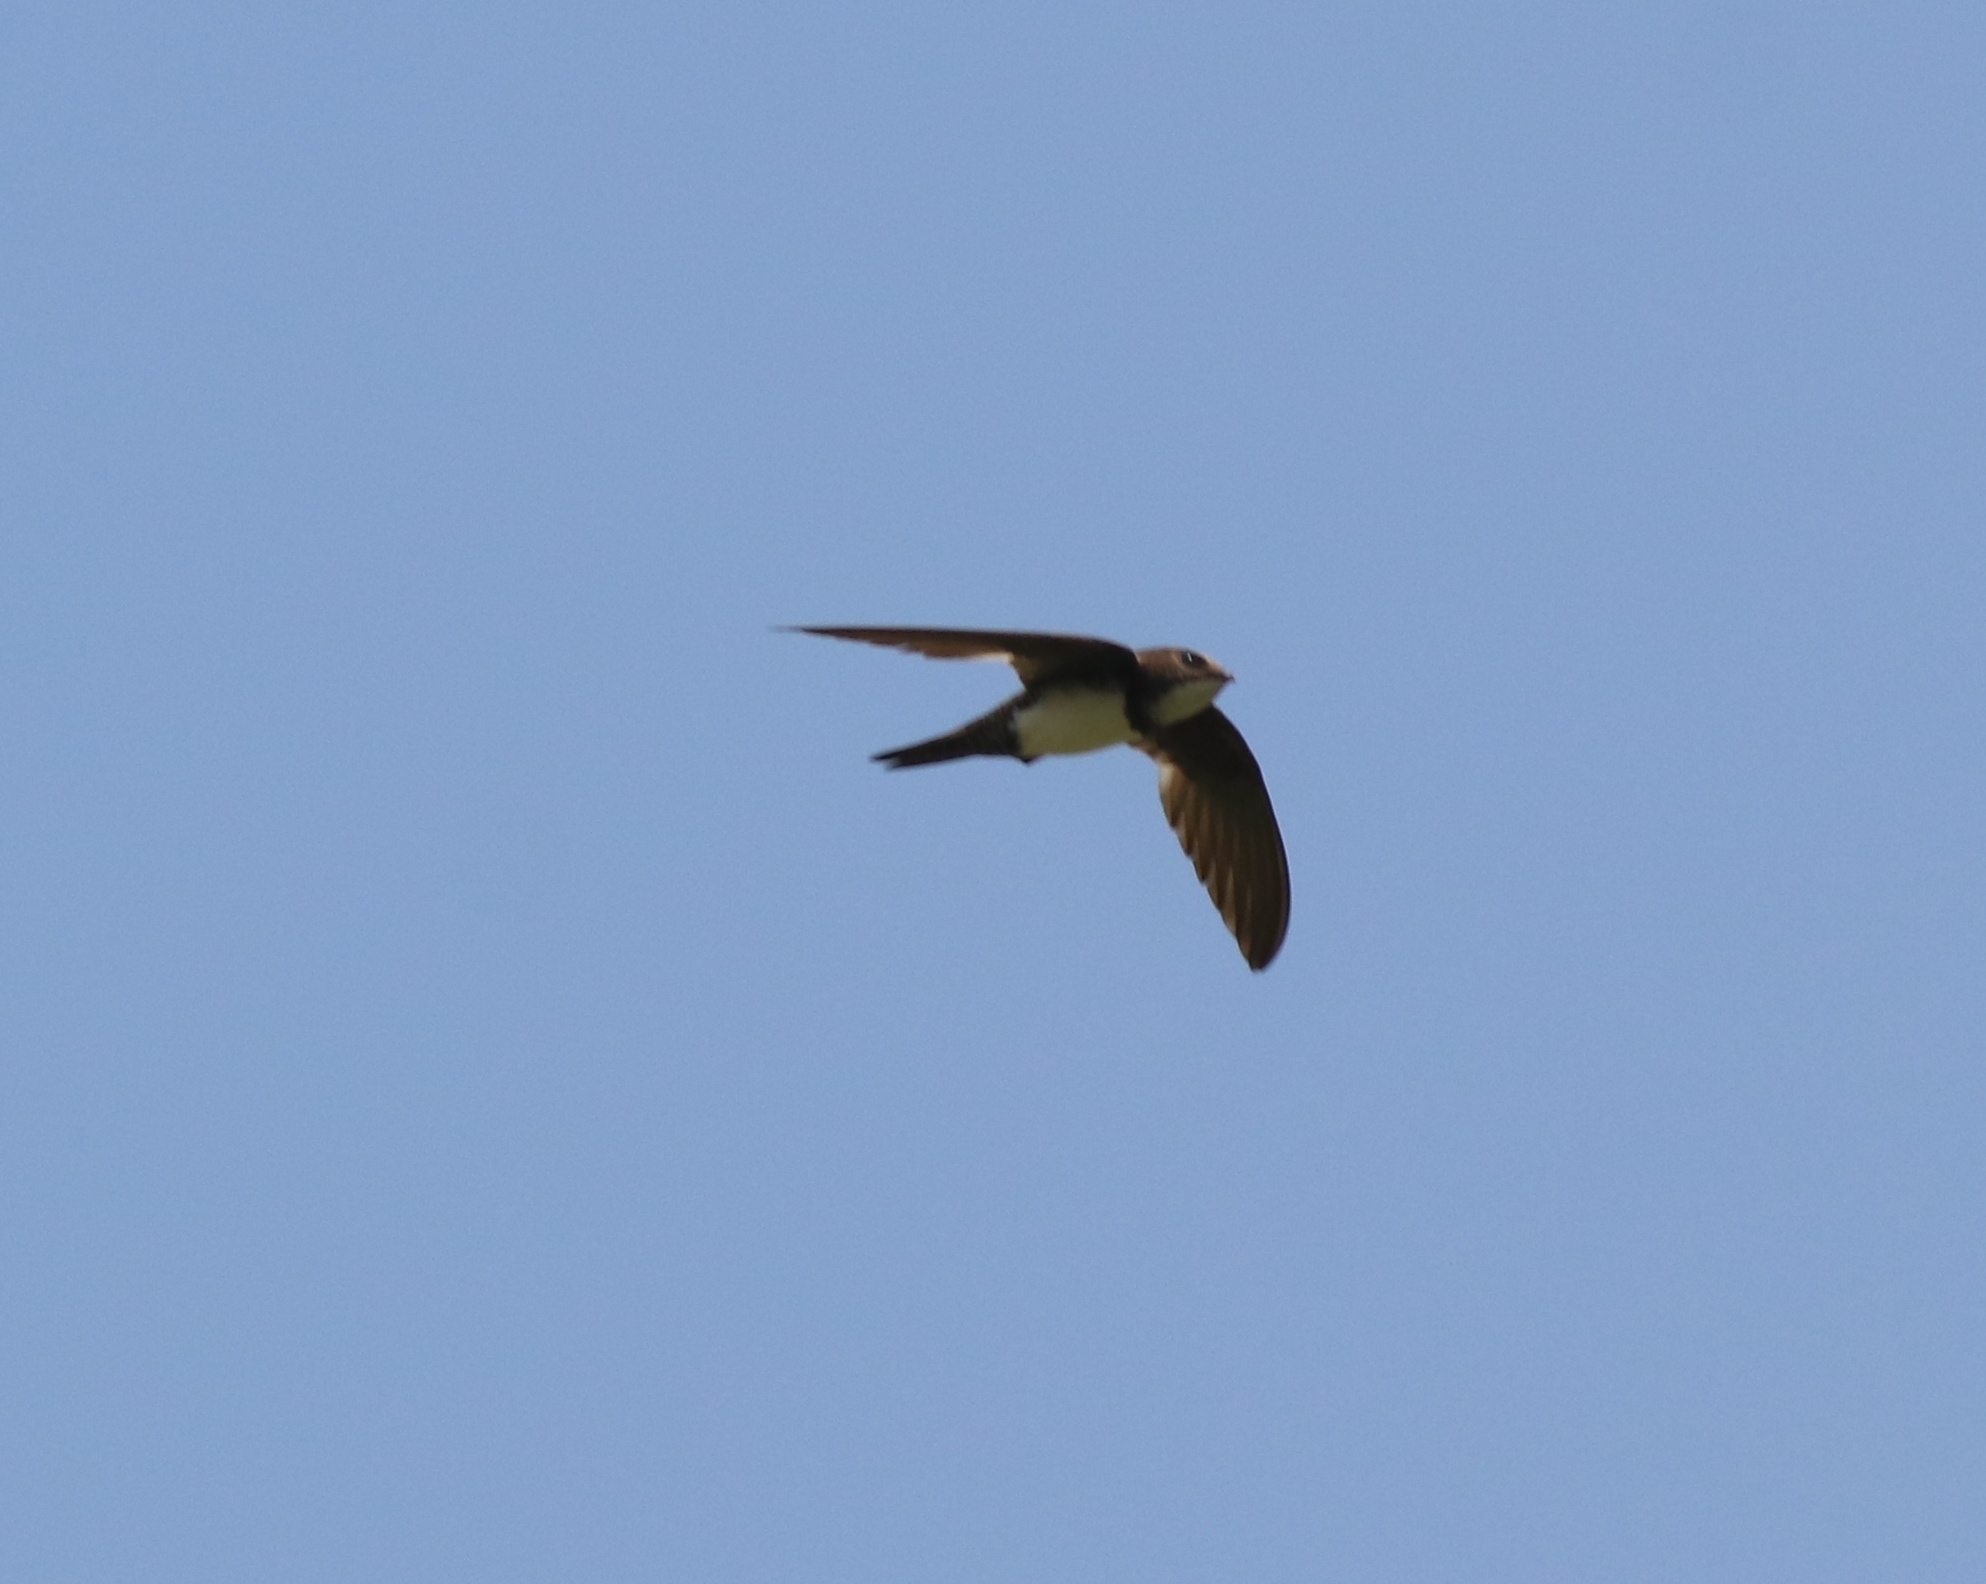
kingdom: Animalia
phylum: Chordata
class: Aves
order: Apodiformes
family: Apodidae
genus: Tachymarptis
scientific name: Tachymarptis melba
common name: Alpine swift
